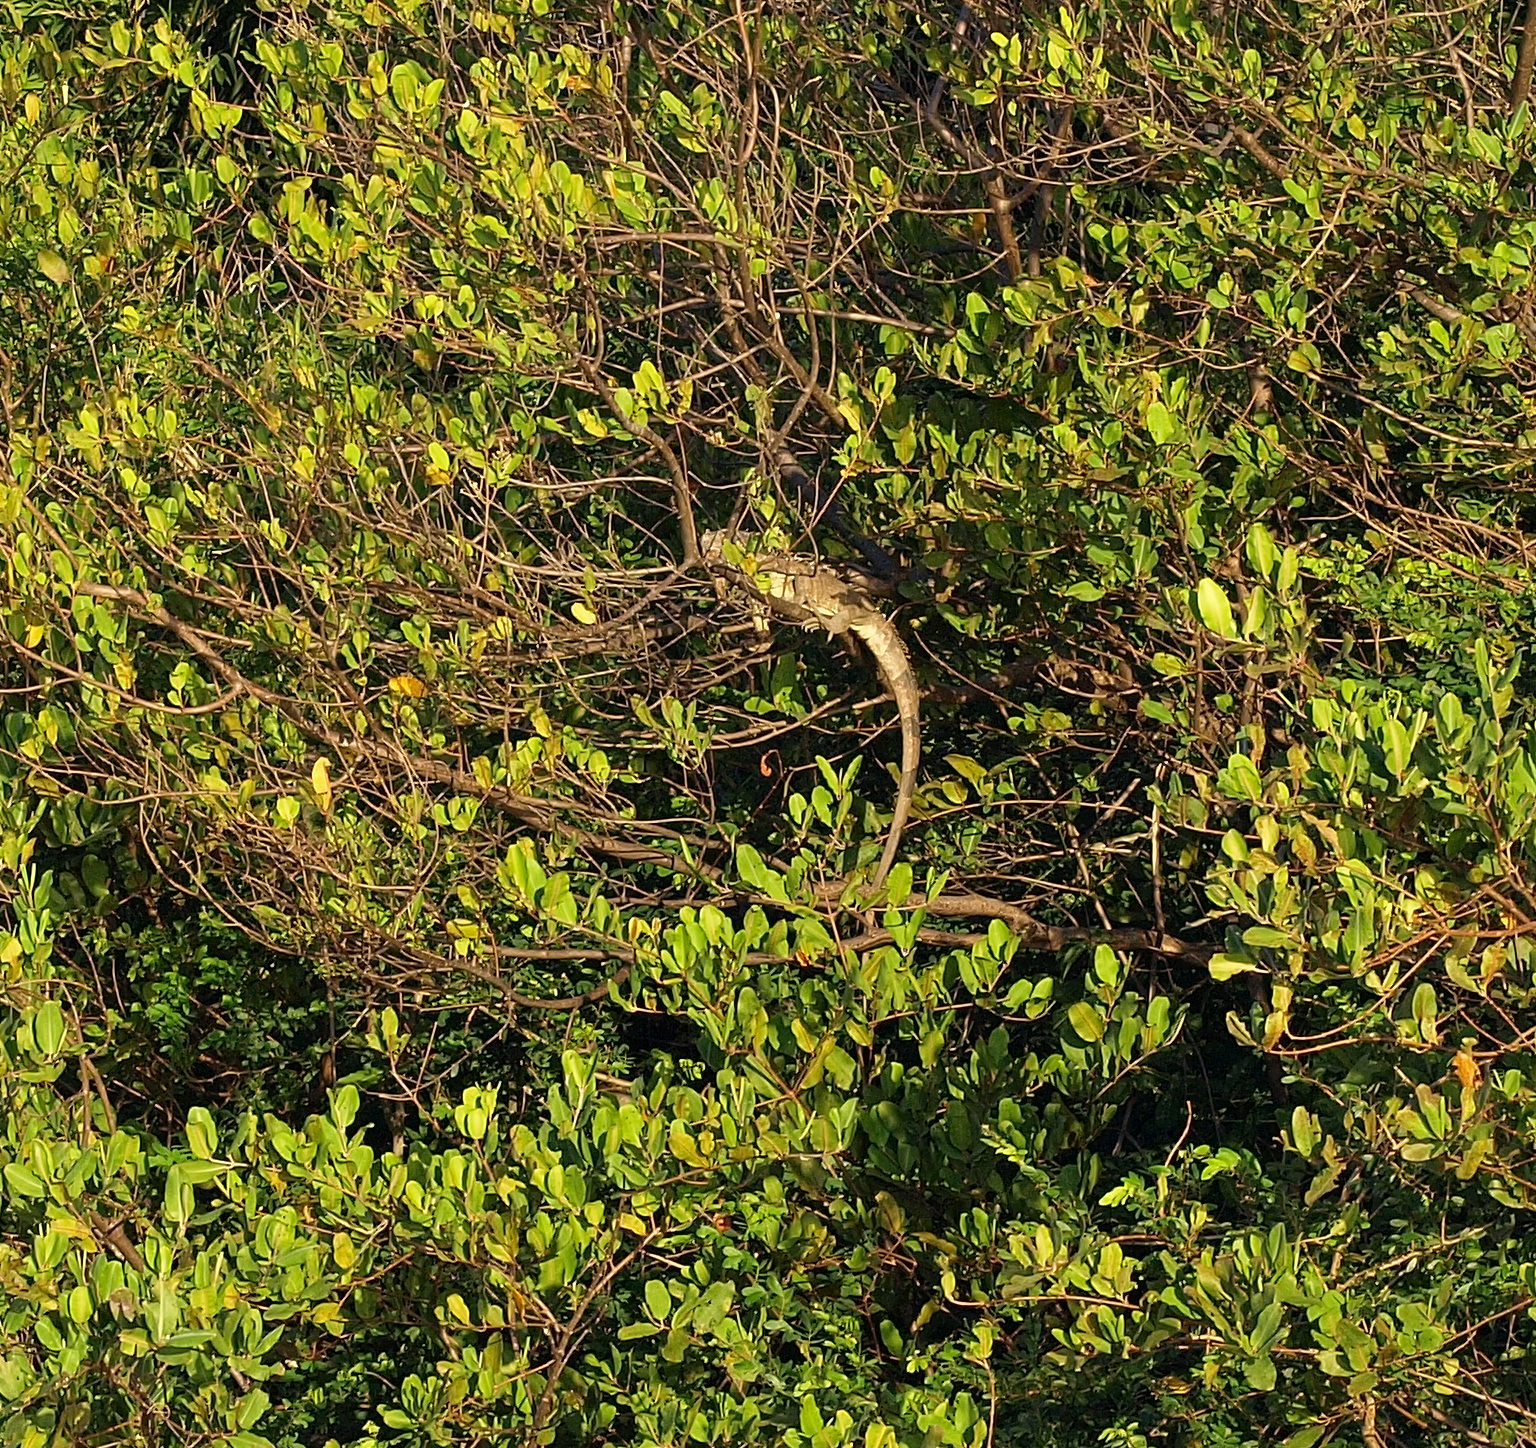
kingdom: Animalia
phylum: Chordata
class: Squamata
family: Iguanidae
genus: Iguana
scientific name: Iguana iguana
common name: Green iguana
